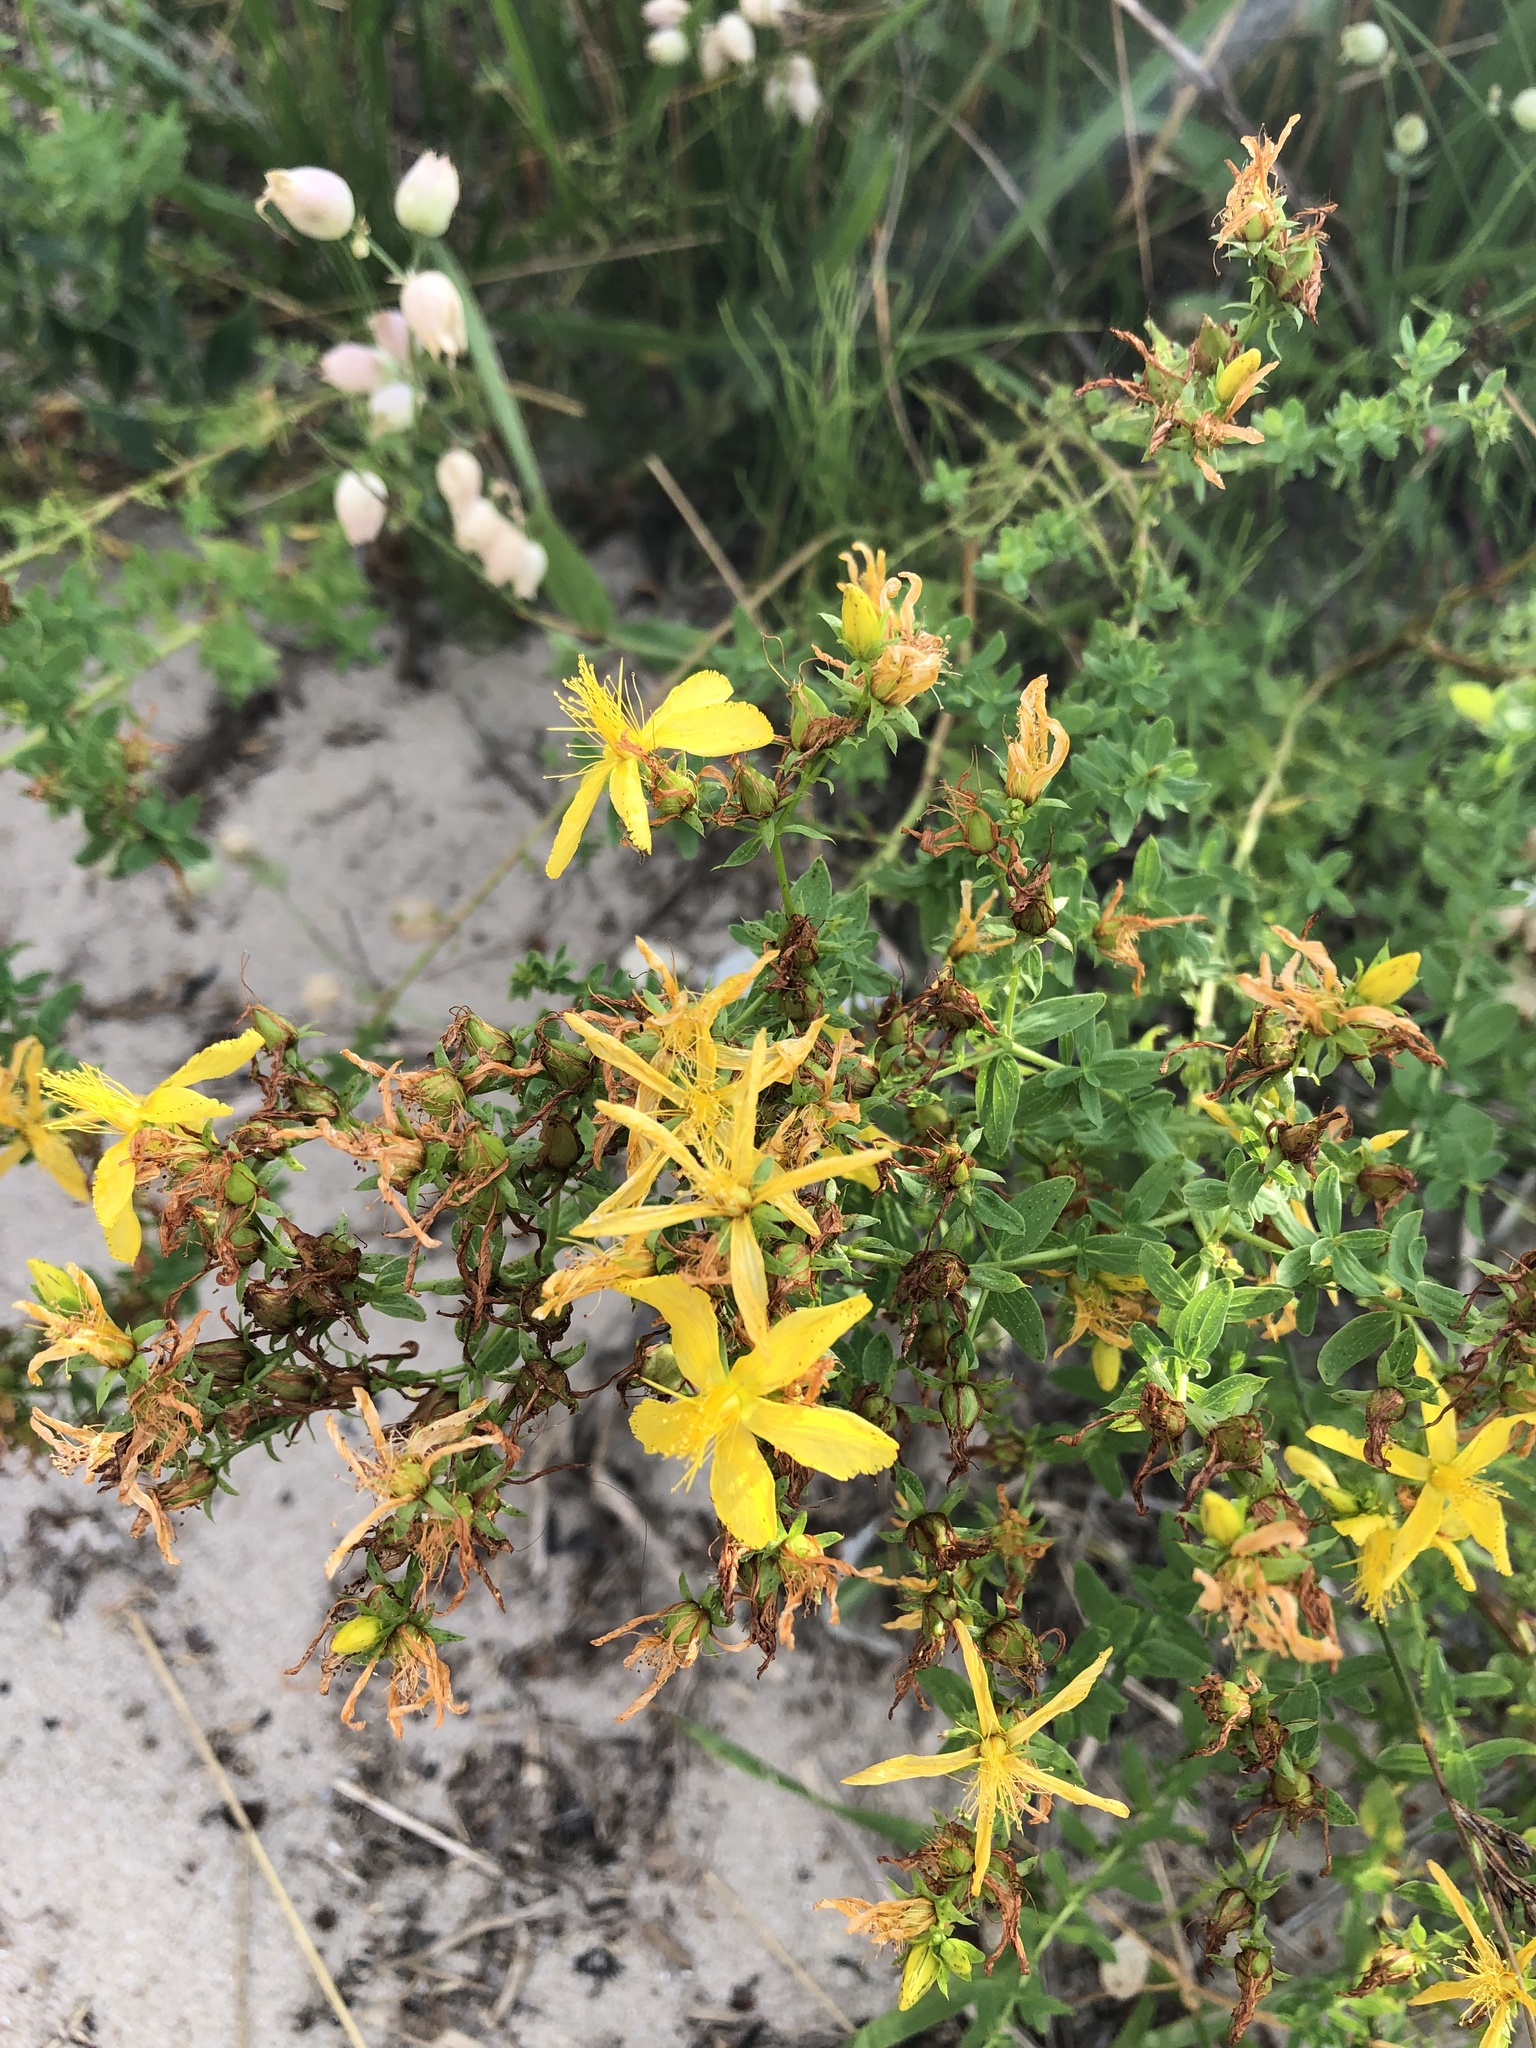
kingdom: Plantae
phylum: Tracheophyta
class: Magnoliopsida
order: Malpighiales
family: Hypericaceae
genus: Hypericum
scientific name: Hypericum perforatum
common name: Common st. johnswort
